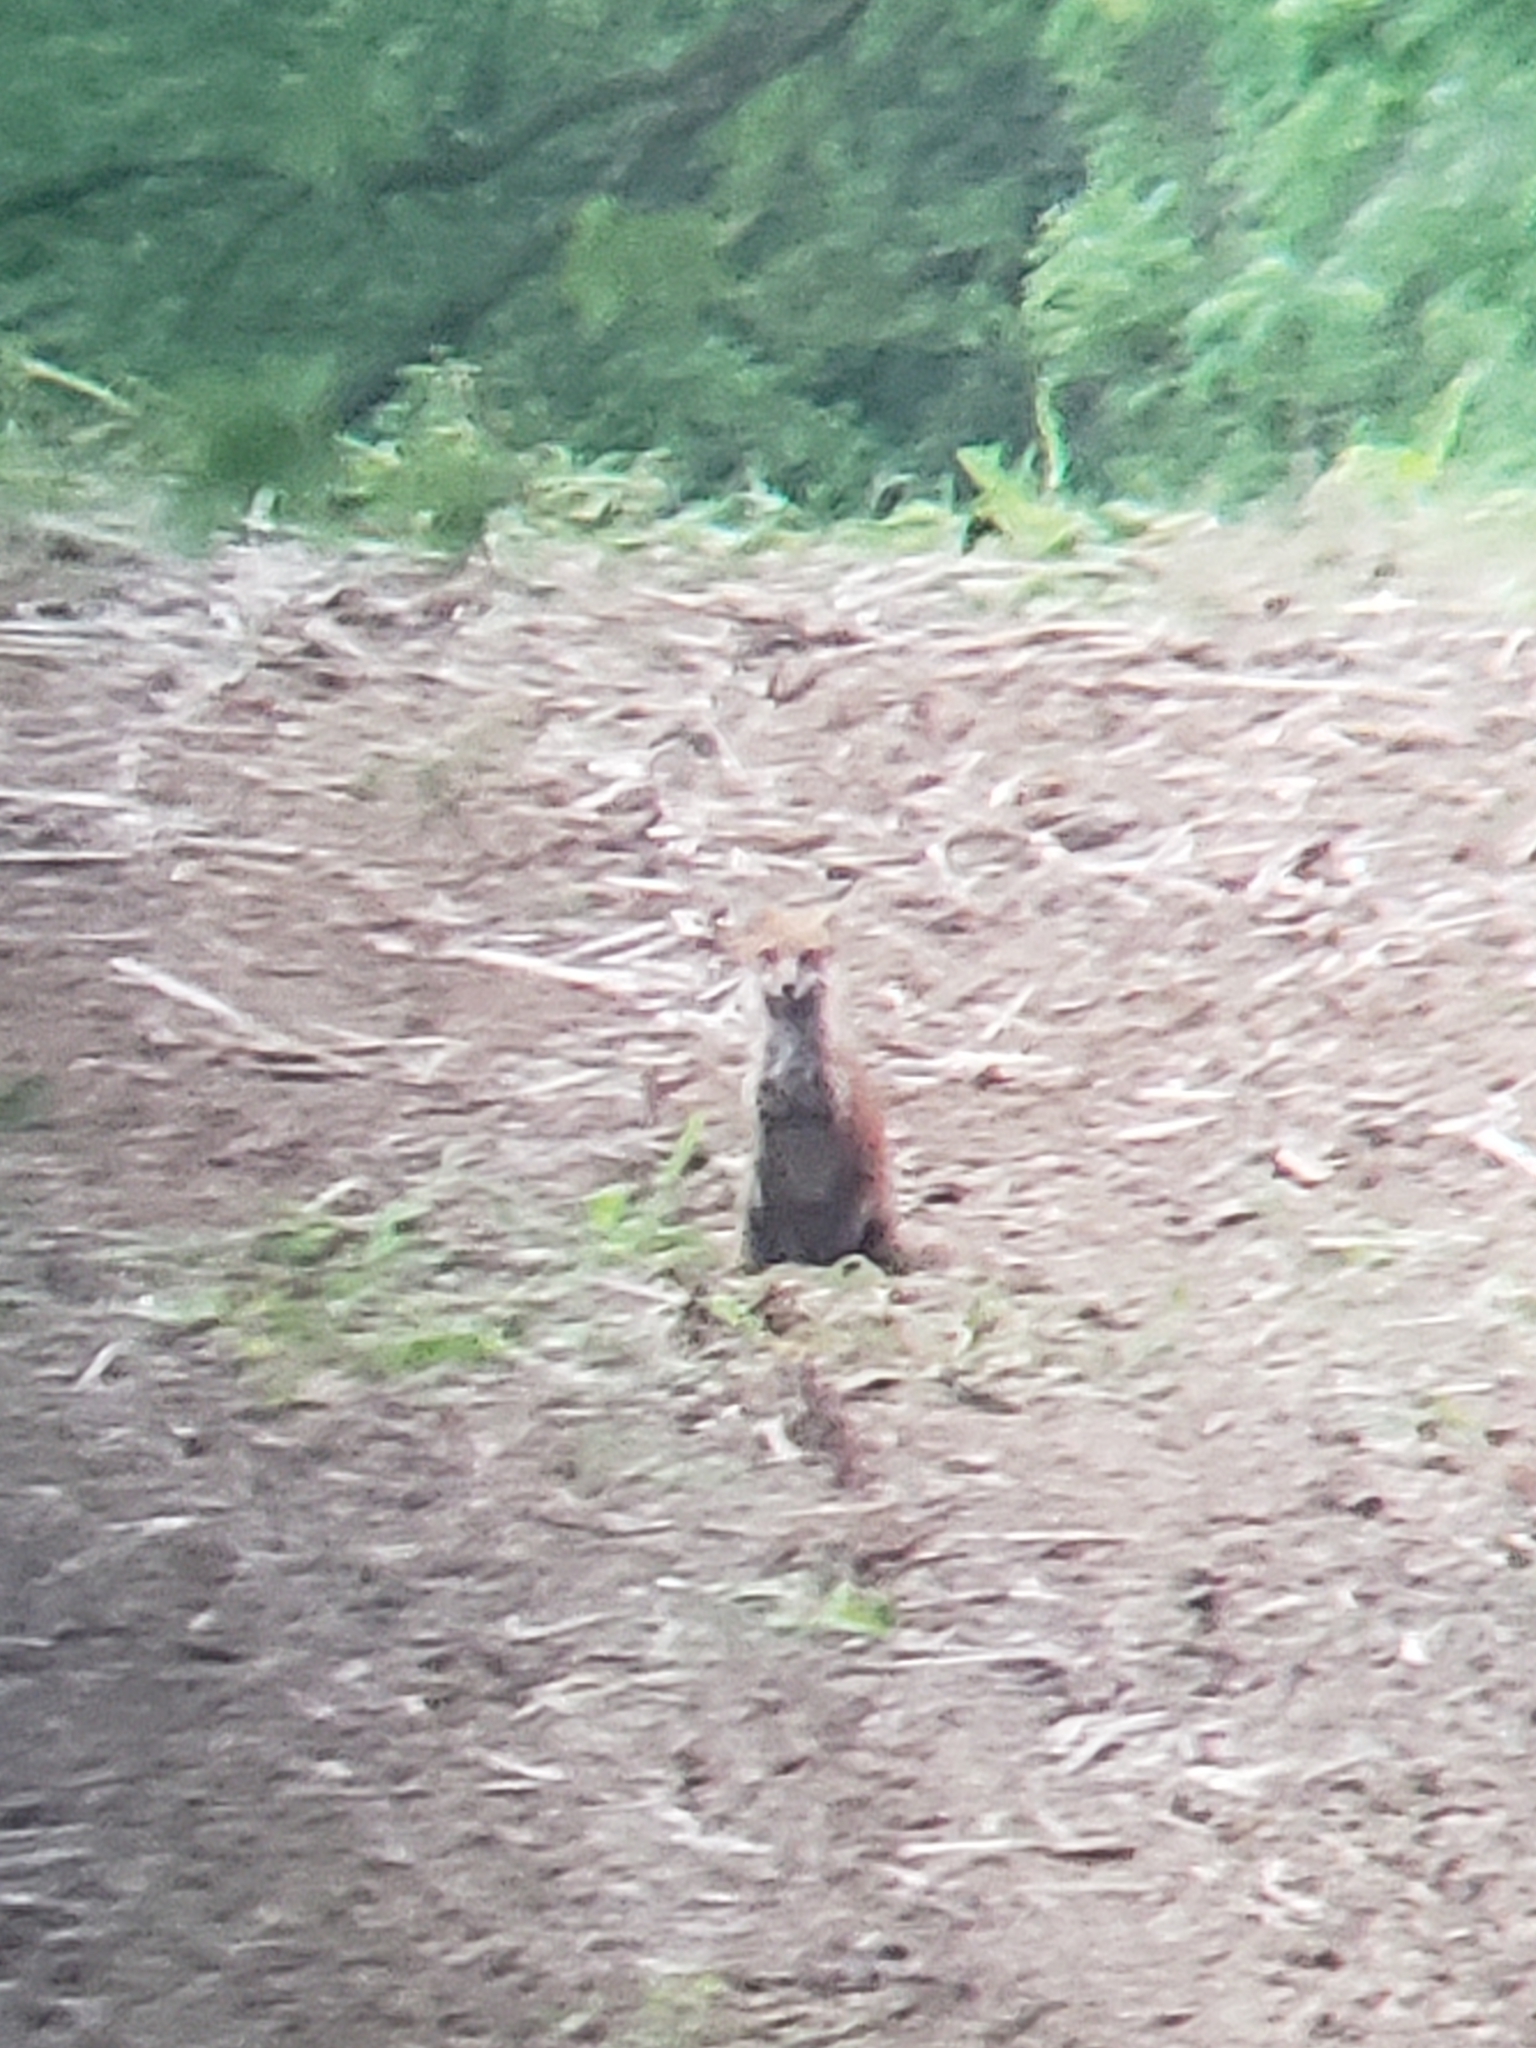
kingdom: Animalia
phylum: Chordata
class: Mammalia
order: Carnivora
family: Canidae
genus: Vulpes
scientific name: Vulpes vulpes
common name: Red fox
